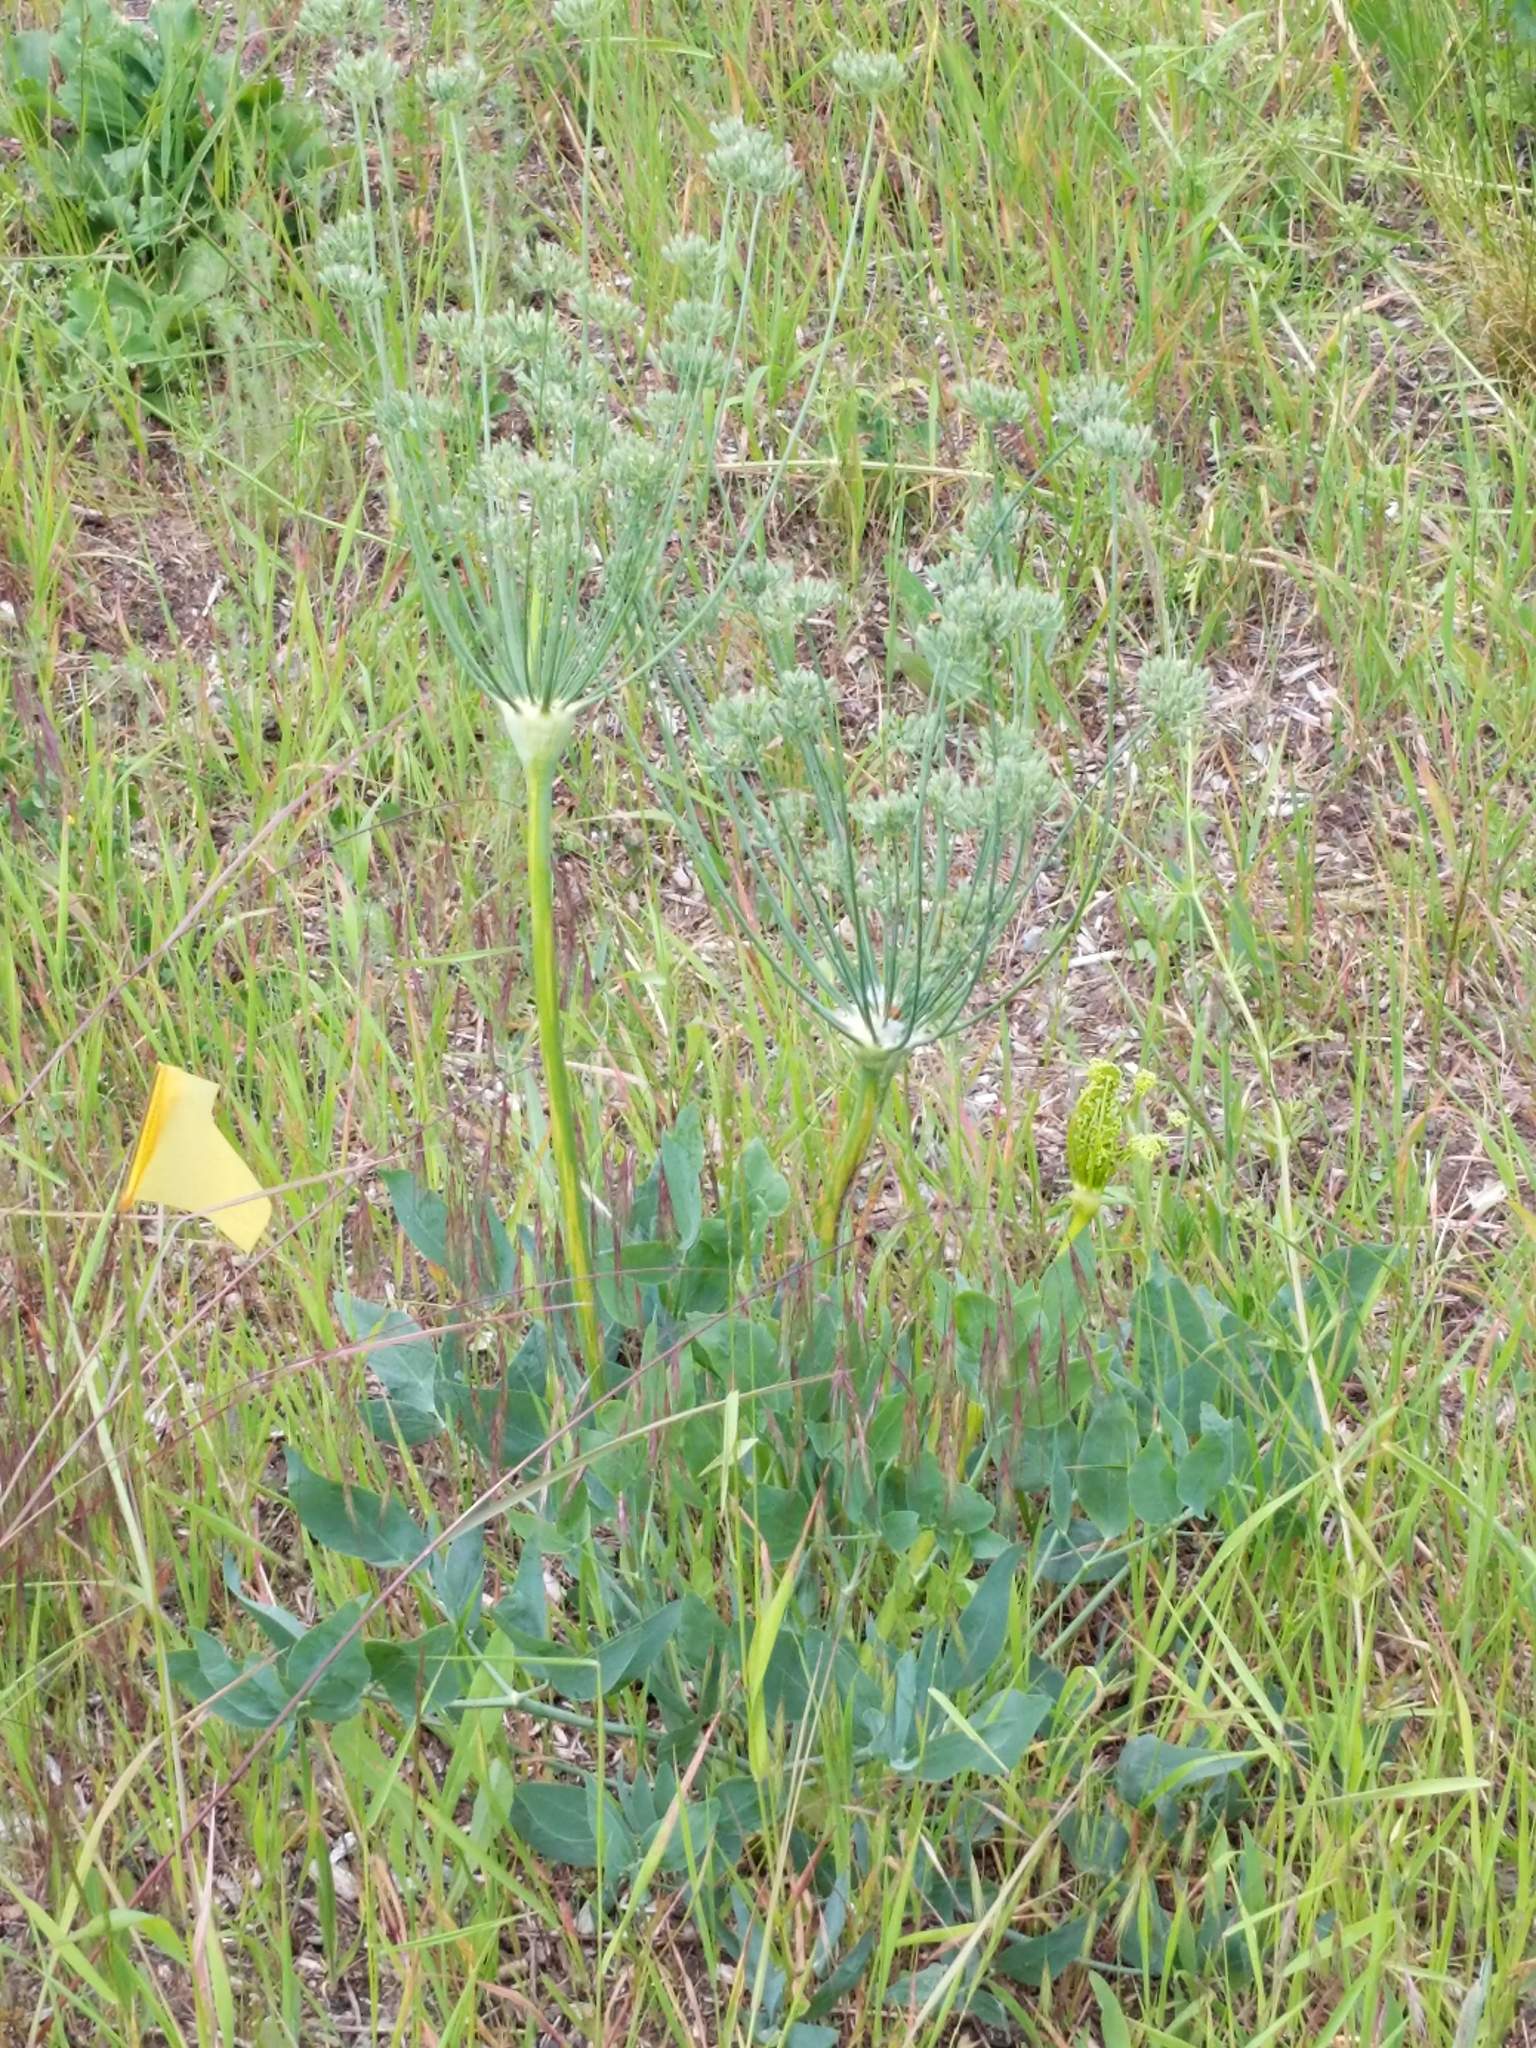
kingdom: Plantae
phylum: Tracheophyta
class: Magnoliopsida
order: Apiales
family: Apiaceae
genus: Lomatium
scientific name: Lomatium nudicaule
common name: Pestle lomatium
